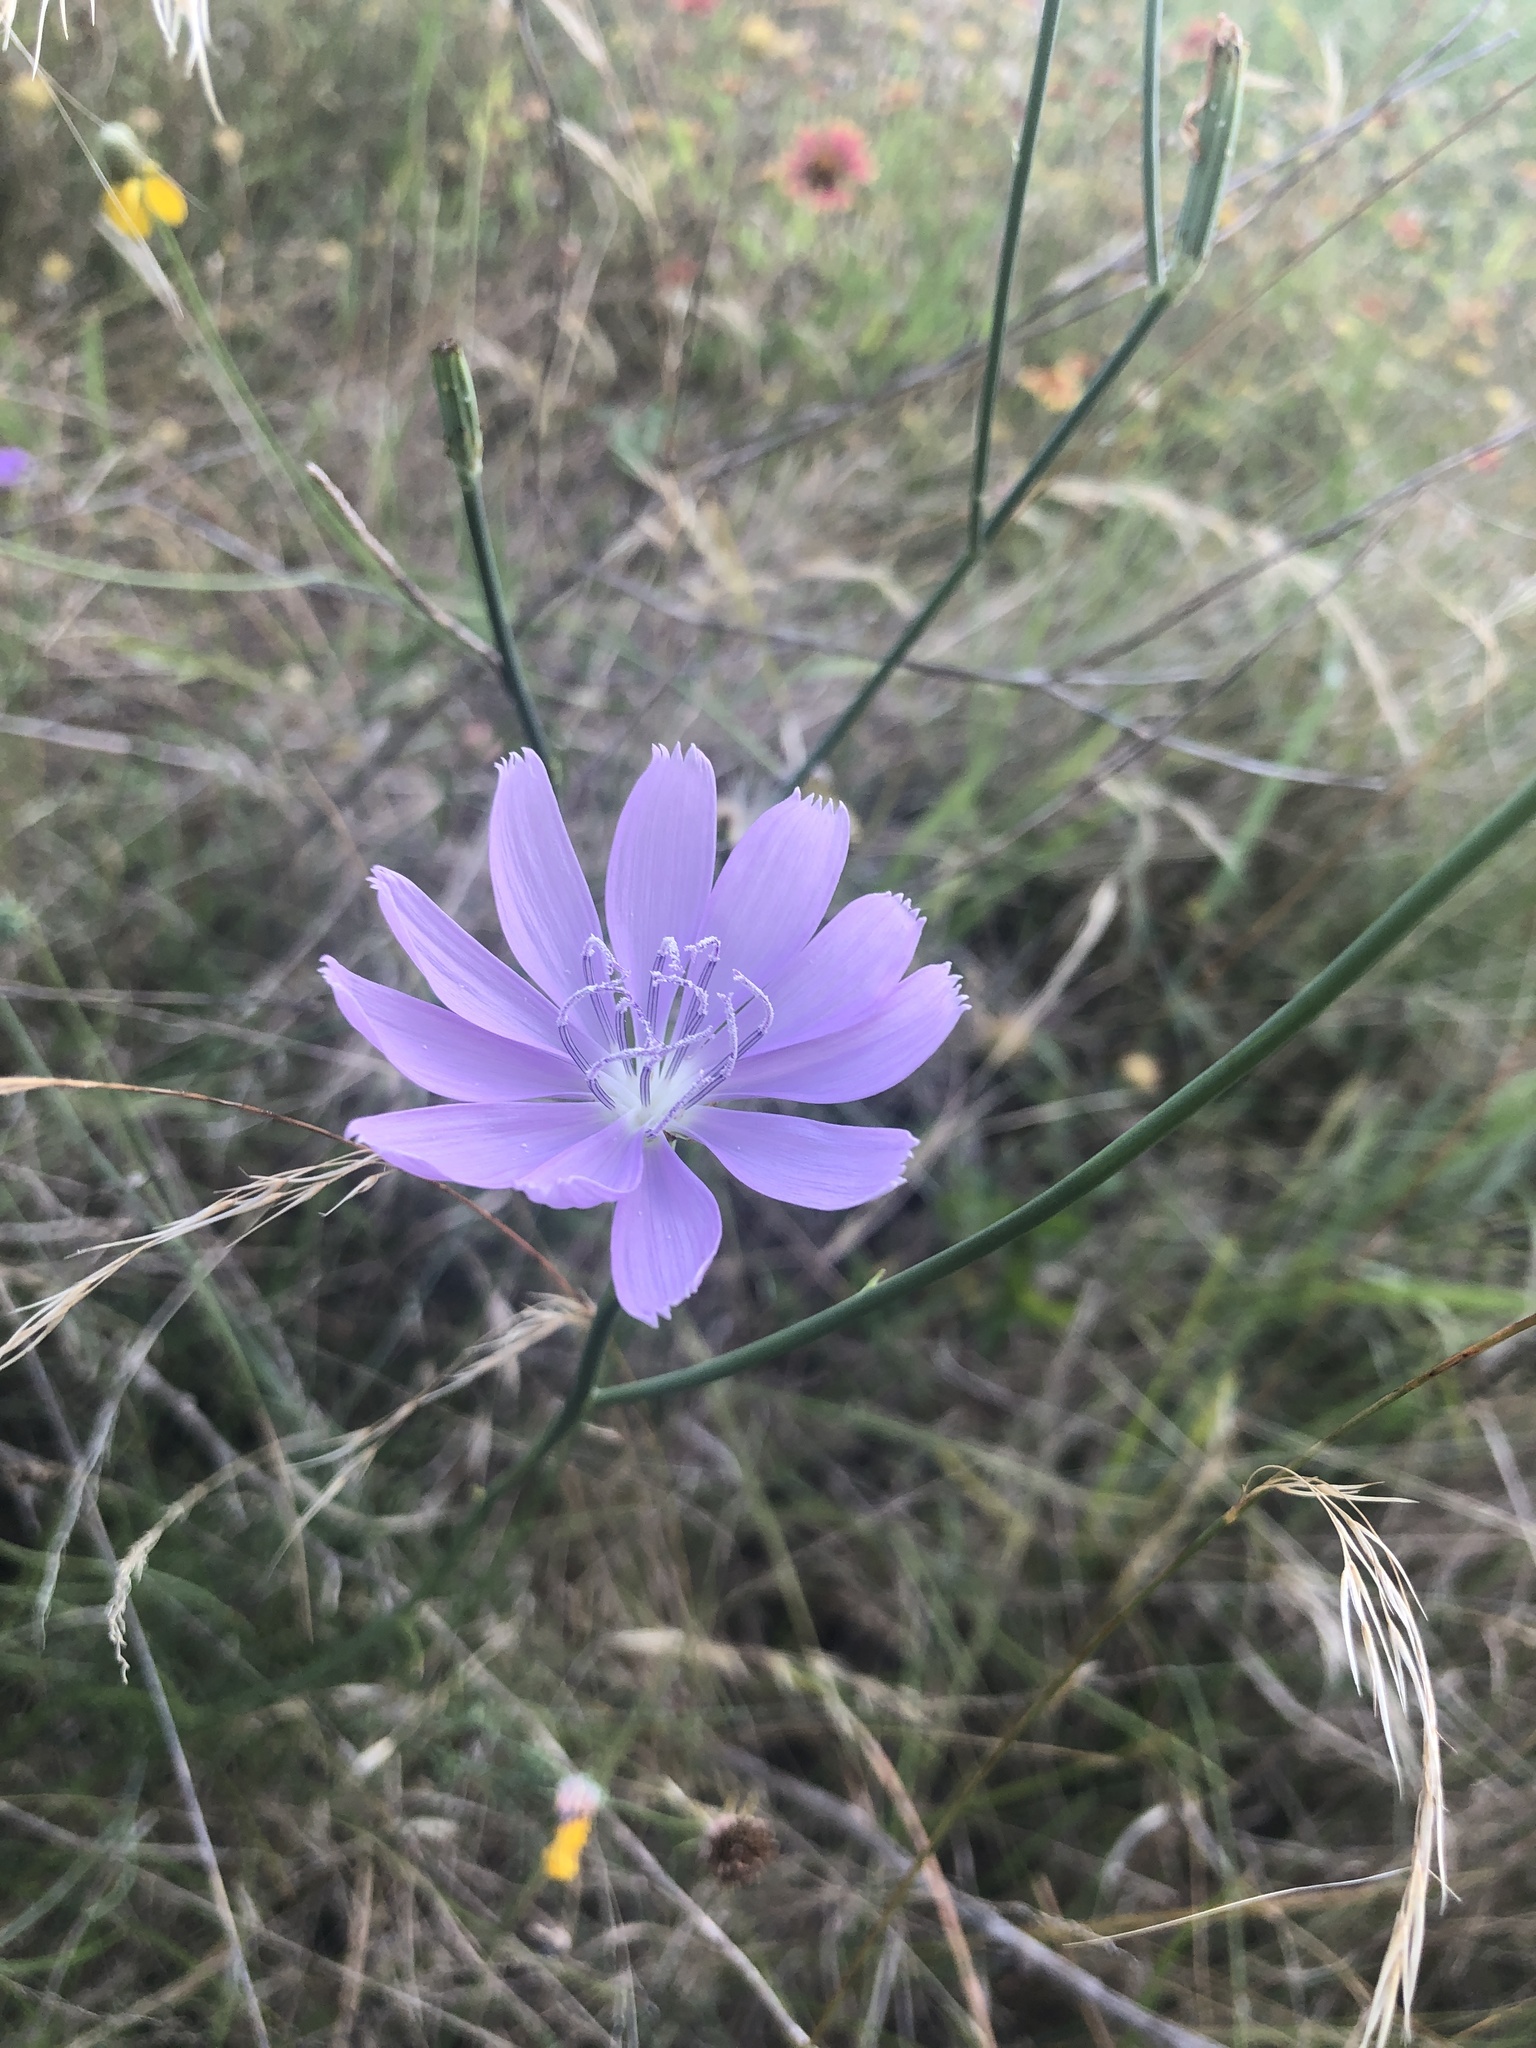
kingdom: Plantae
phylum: Tracheophyta
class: Magnoliopsida
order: Asterales
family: Asteraceae
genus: Lygodesmia
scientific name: Lygodesmia texana
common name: Texas skeleton-plant
